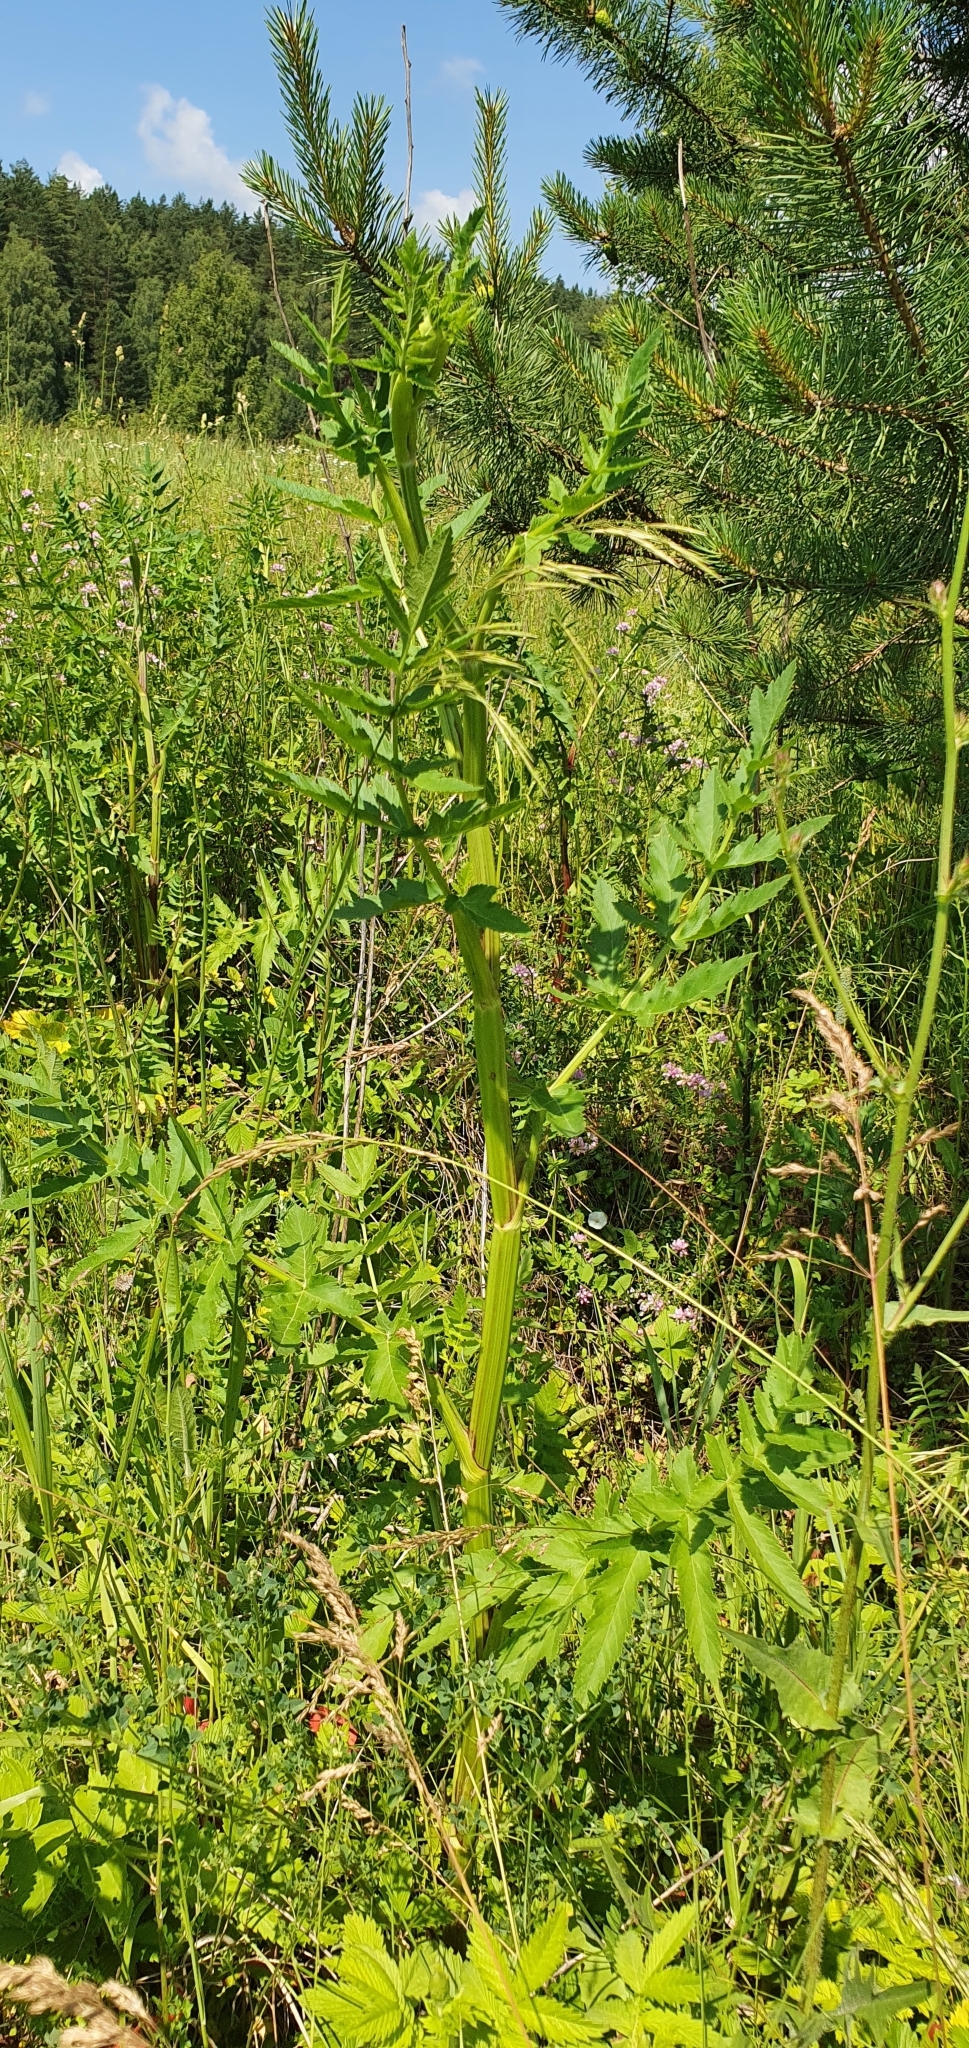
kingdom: Plantae
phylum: Tracheophyta
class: Magnoliopsida
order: Apiales
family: Apiaceae
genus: Pastinaca
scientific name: Pastinaca sativa
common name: Wild parsnip
